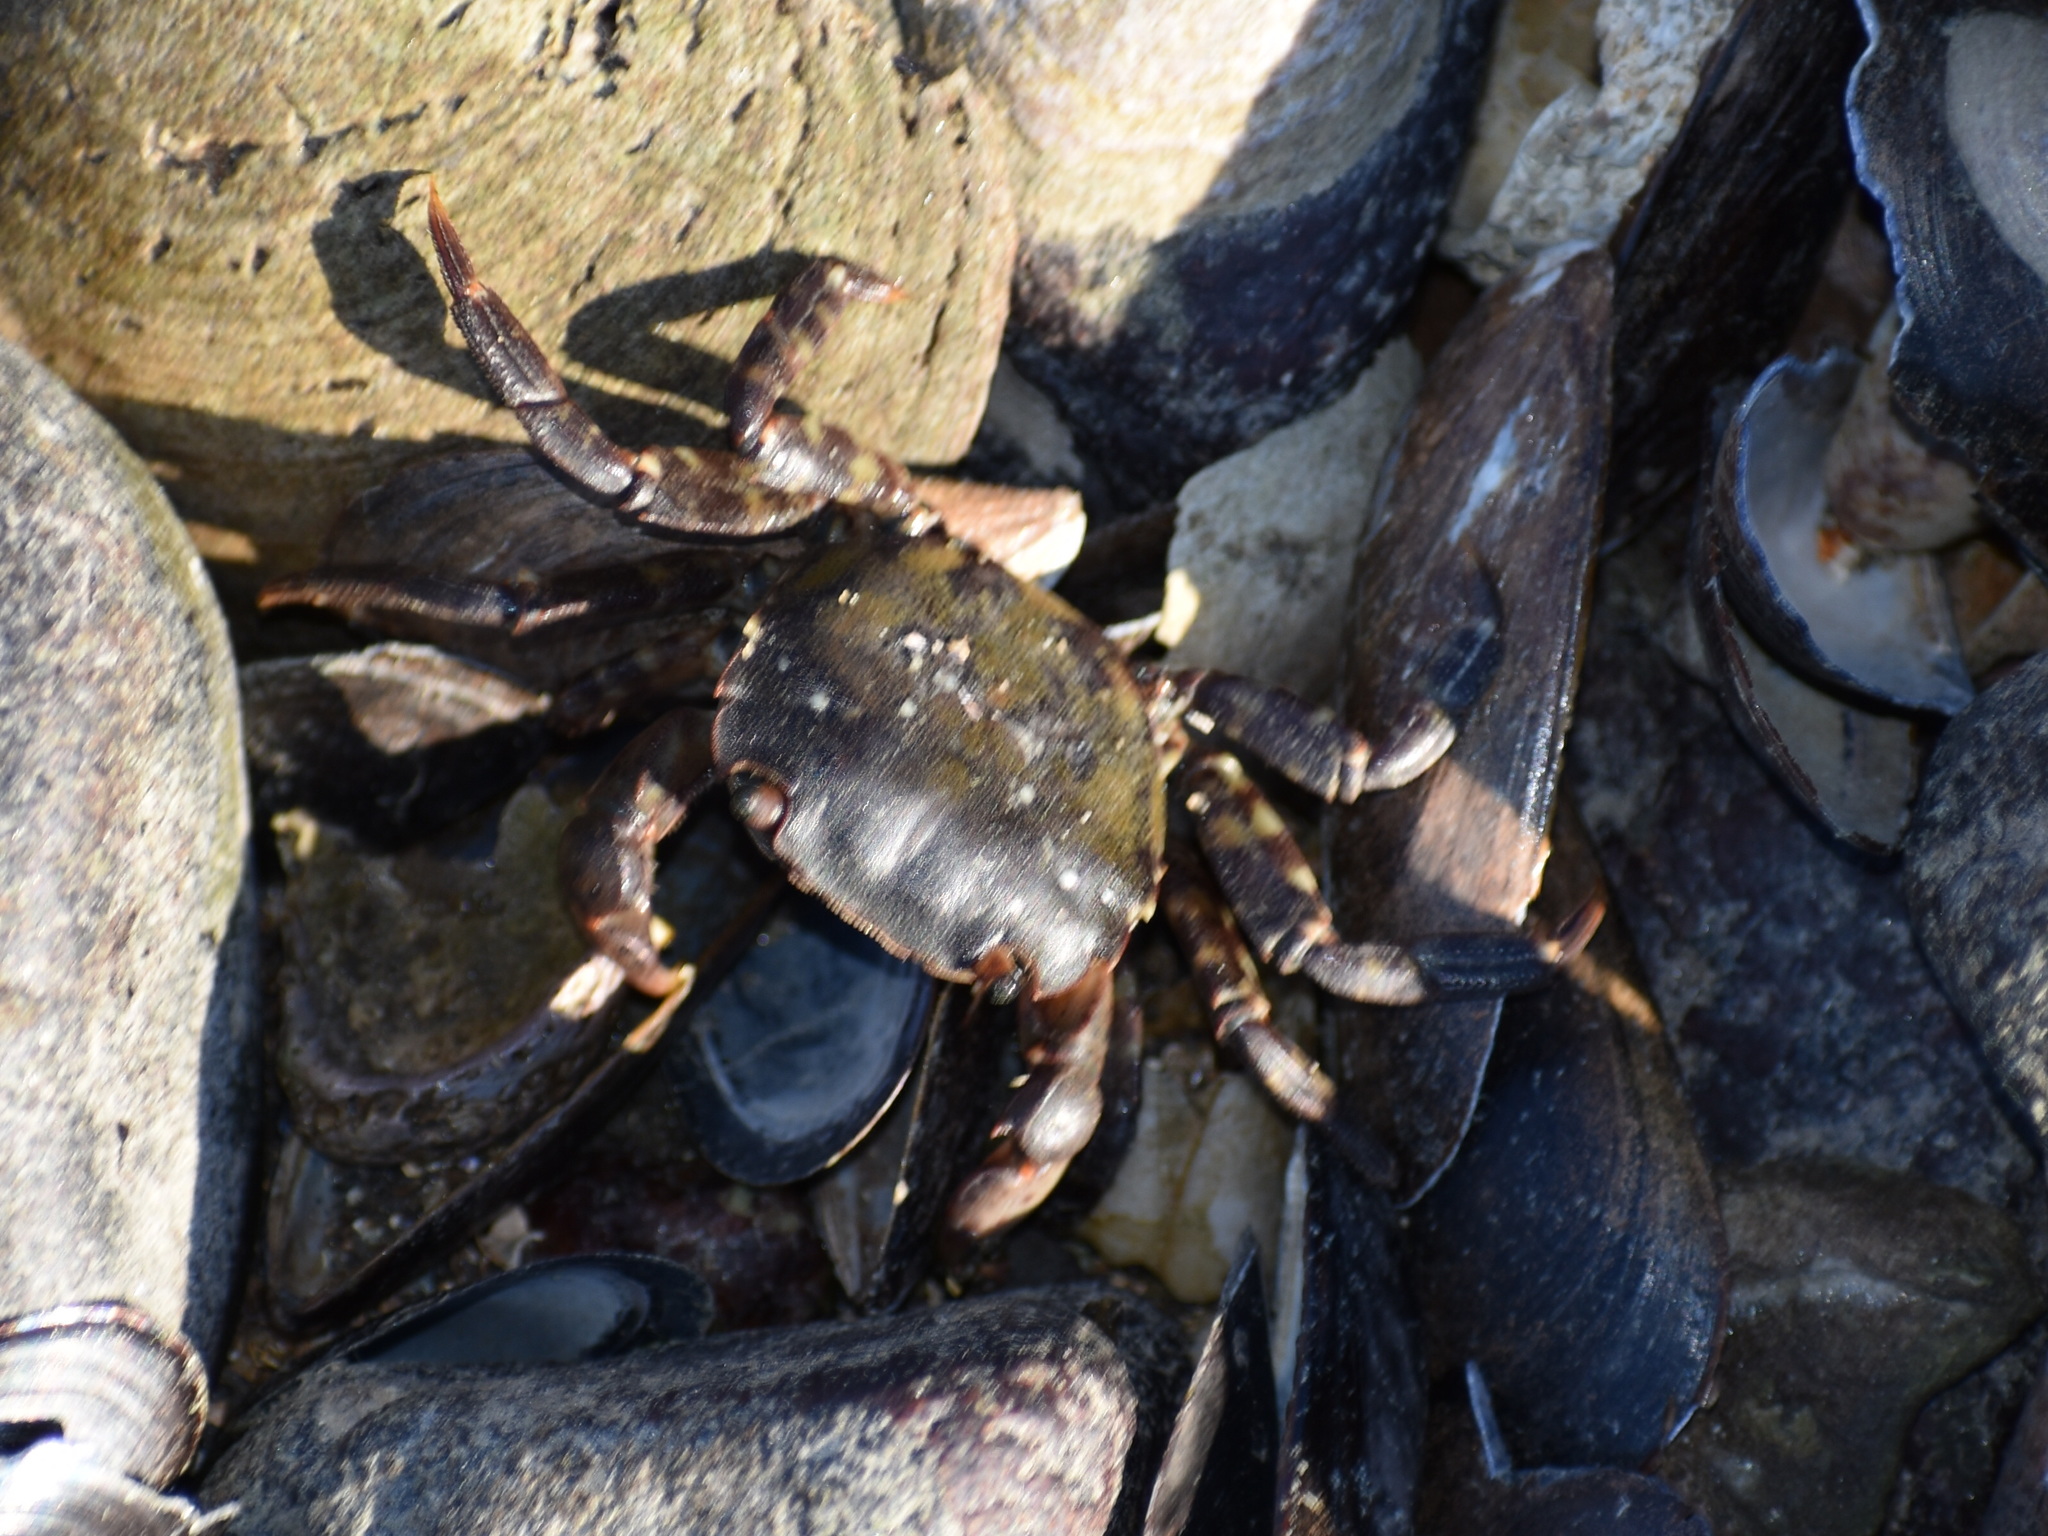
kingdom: Animalia
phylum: Arthropoda
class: Malacostraca
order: Decapoda
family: Varunidae
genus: Hemigrapsus
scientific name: Hemigrapsus sanguineus
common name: Asian shore crab
